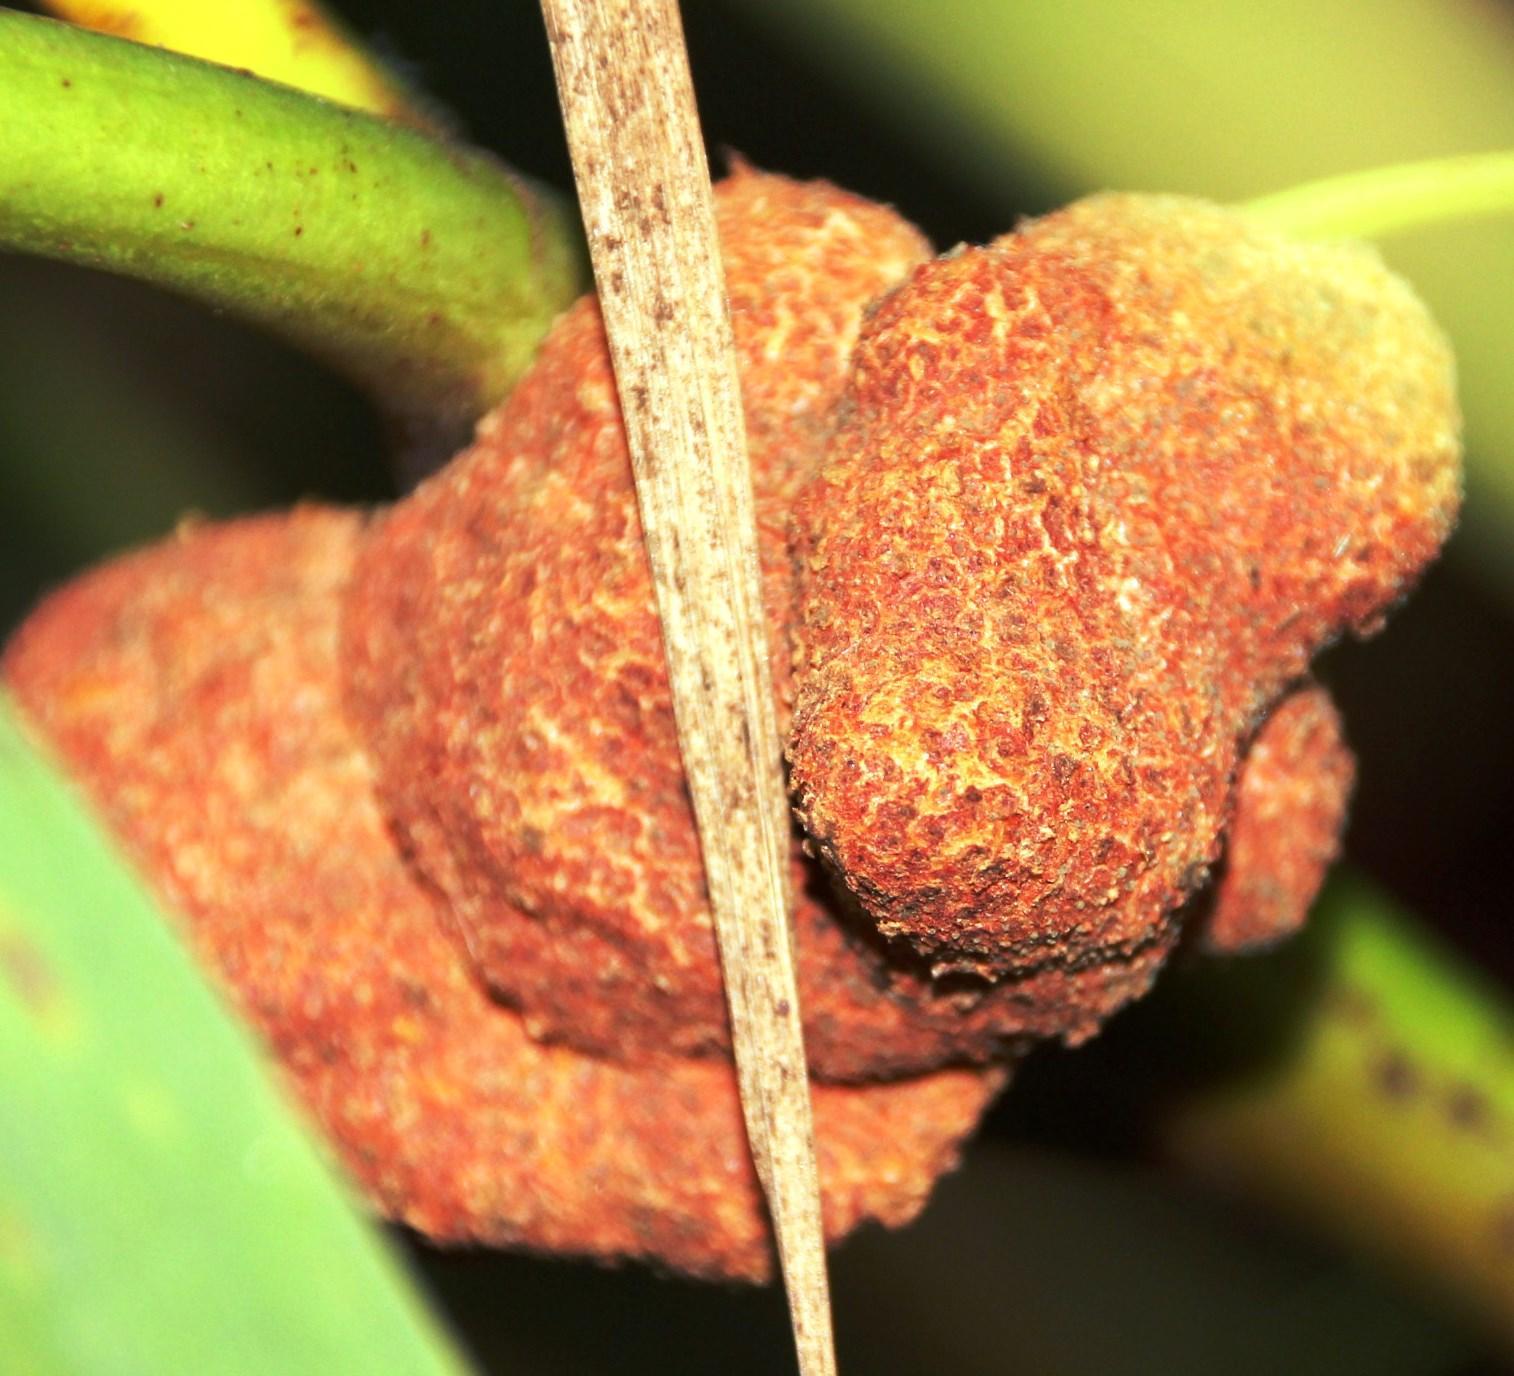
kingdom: Fungi
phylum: Basidiomycota
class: Pucciniomycetes
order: Pucciniales
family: Uromycladiaceae
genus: Uromycladium
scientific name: Uromycladium morrisii
